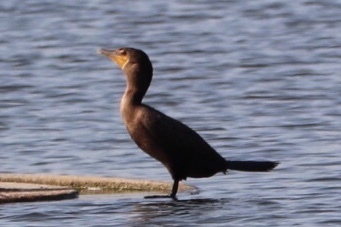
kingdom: Animalia
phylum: Chordata
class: Aves
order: Suliformes
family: Phalacrocoracidae
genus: Phalacrocorax
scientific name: Phalacrocorax auritus
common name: Double-crested cormorant
